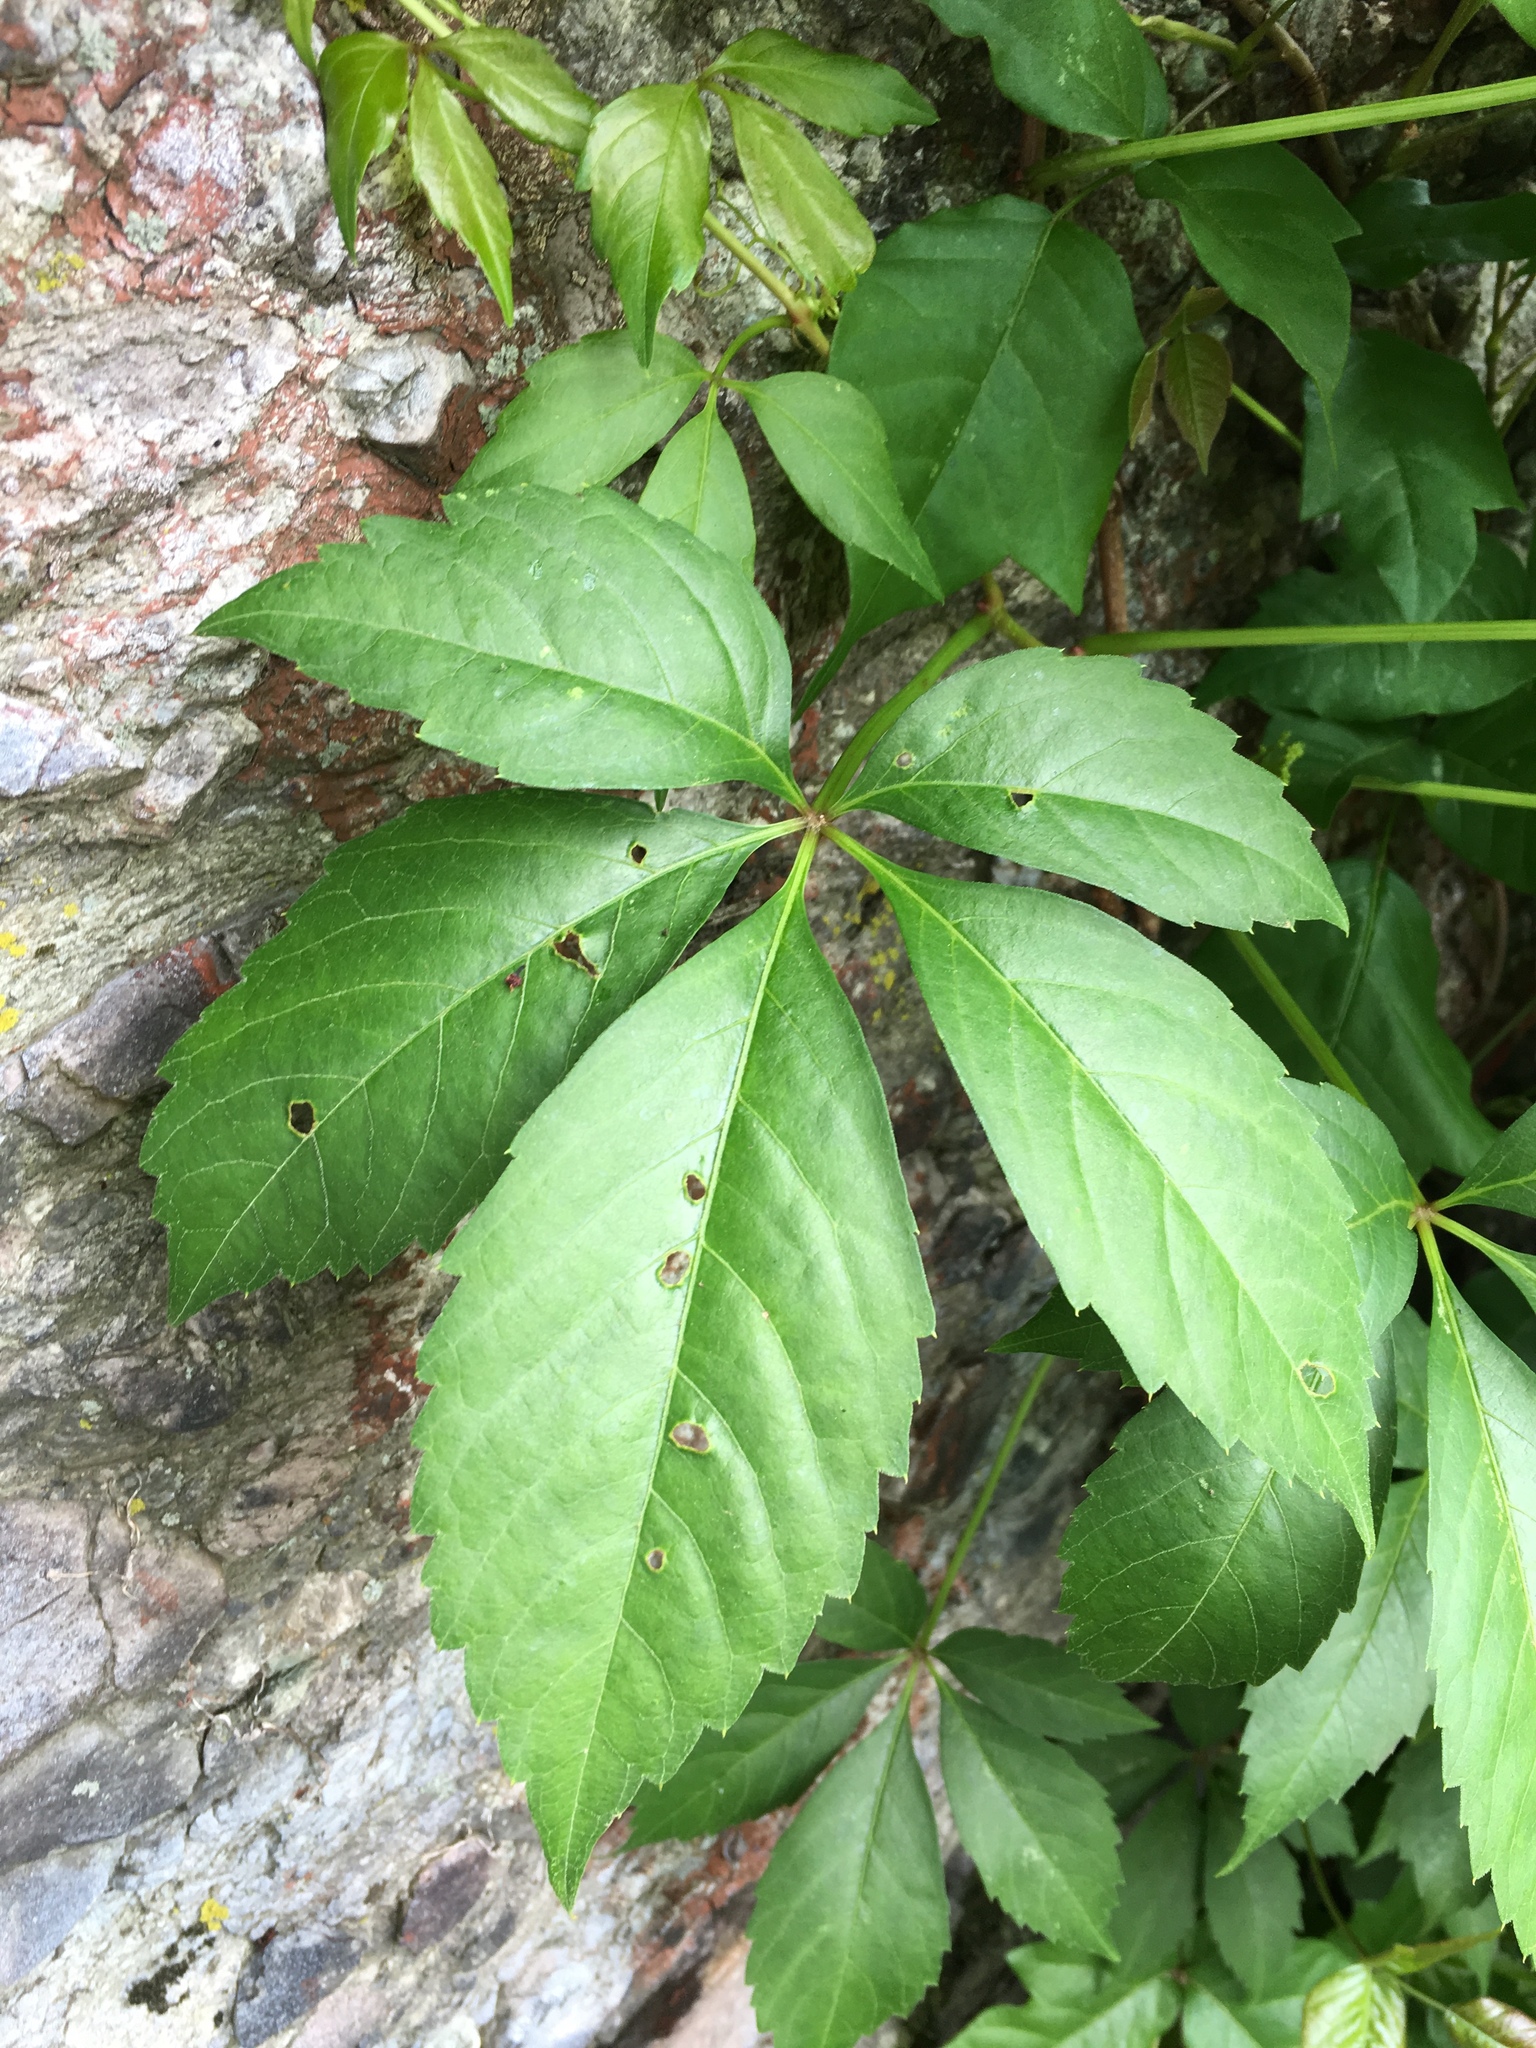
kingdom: Plantae
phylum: Tracheophyta
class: Magnoliopsida
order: Vitales
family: Vitaceae
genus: Parthenocissus
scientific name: Parthenocissus quinquefolia
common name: Virginia-creeper
